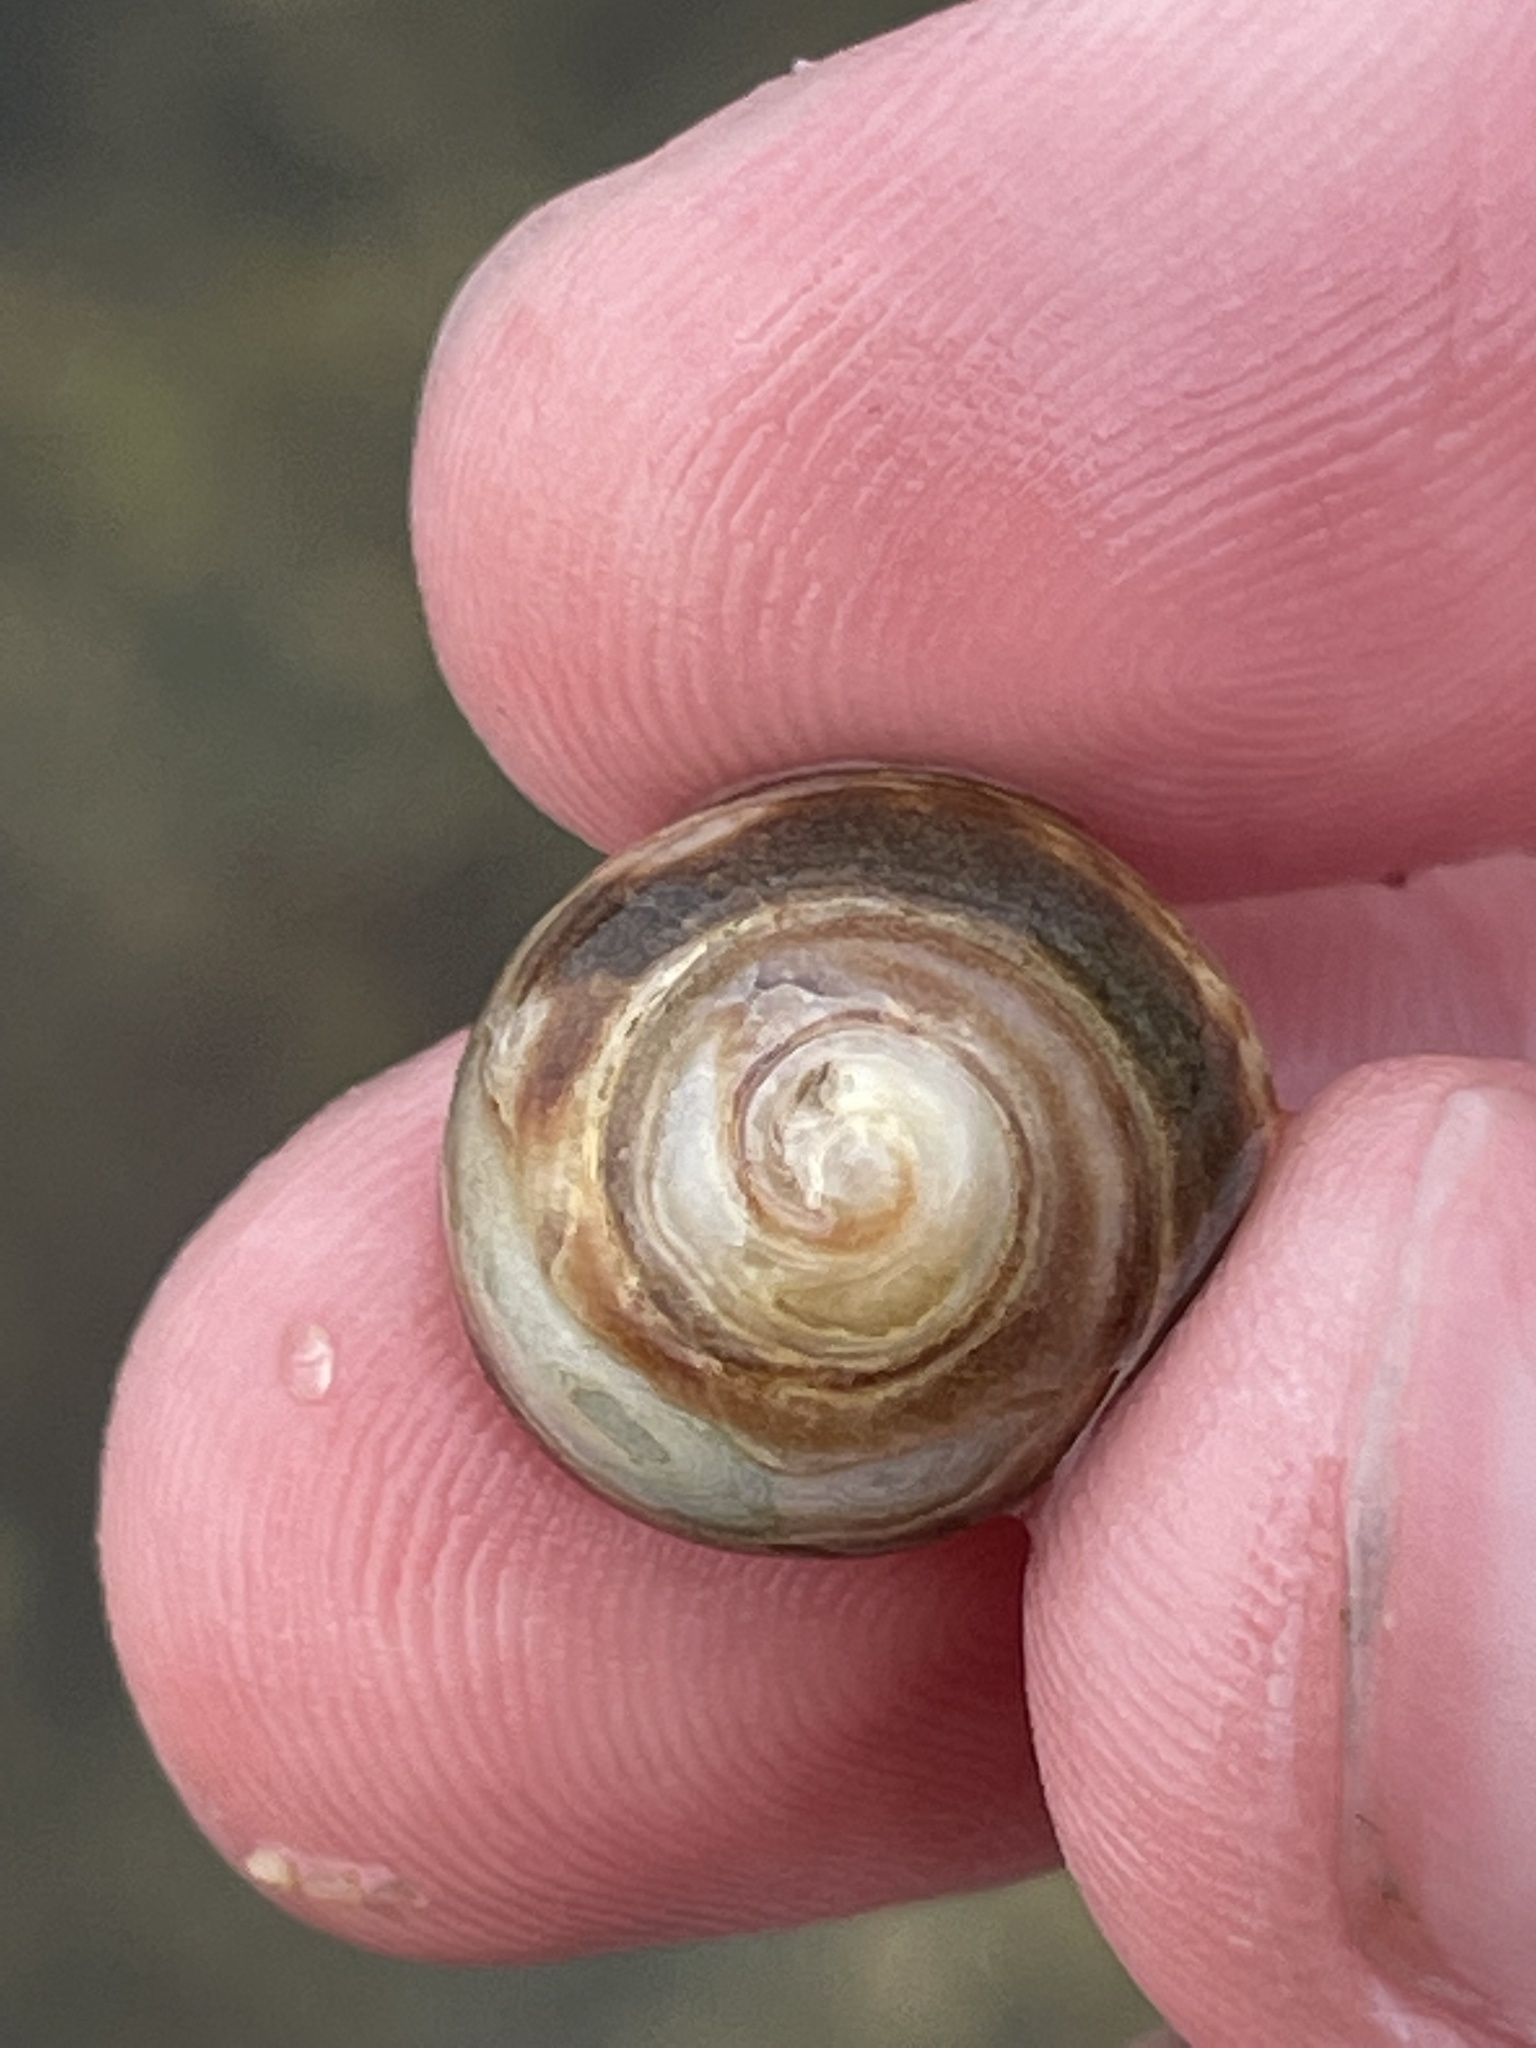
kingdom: Animalia
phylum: Mollusca
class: Gastropoda
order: Littorinimorpha
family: Littorinidae
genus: Littorina
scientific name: Littorina littorea
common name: Common periwinkle
